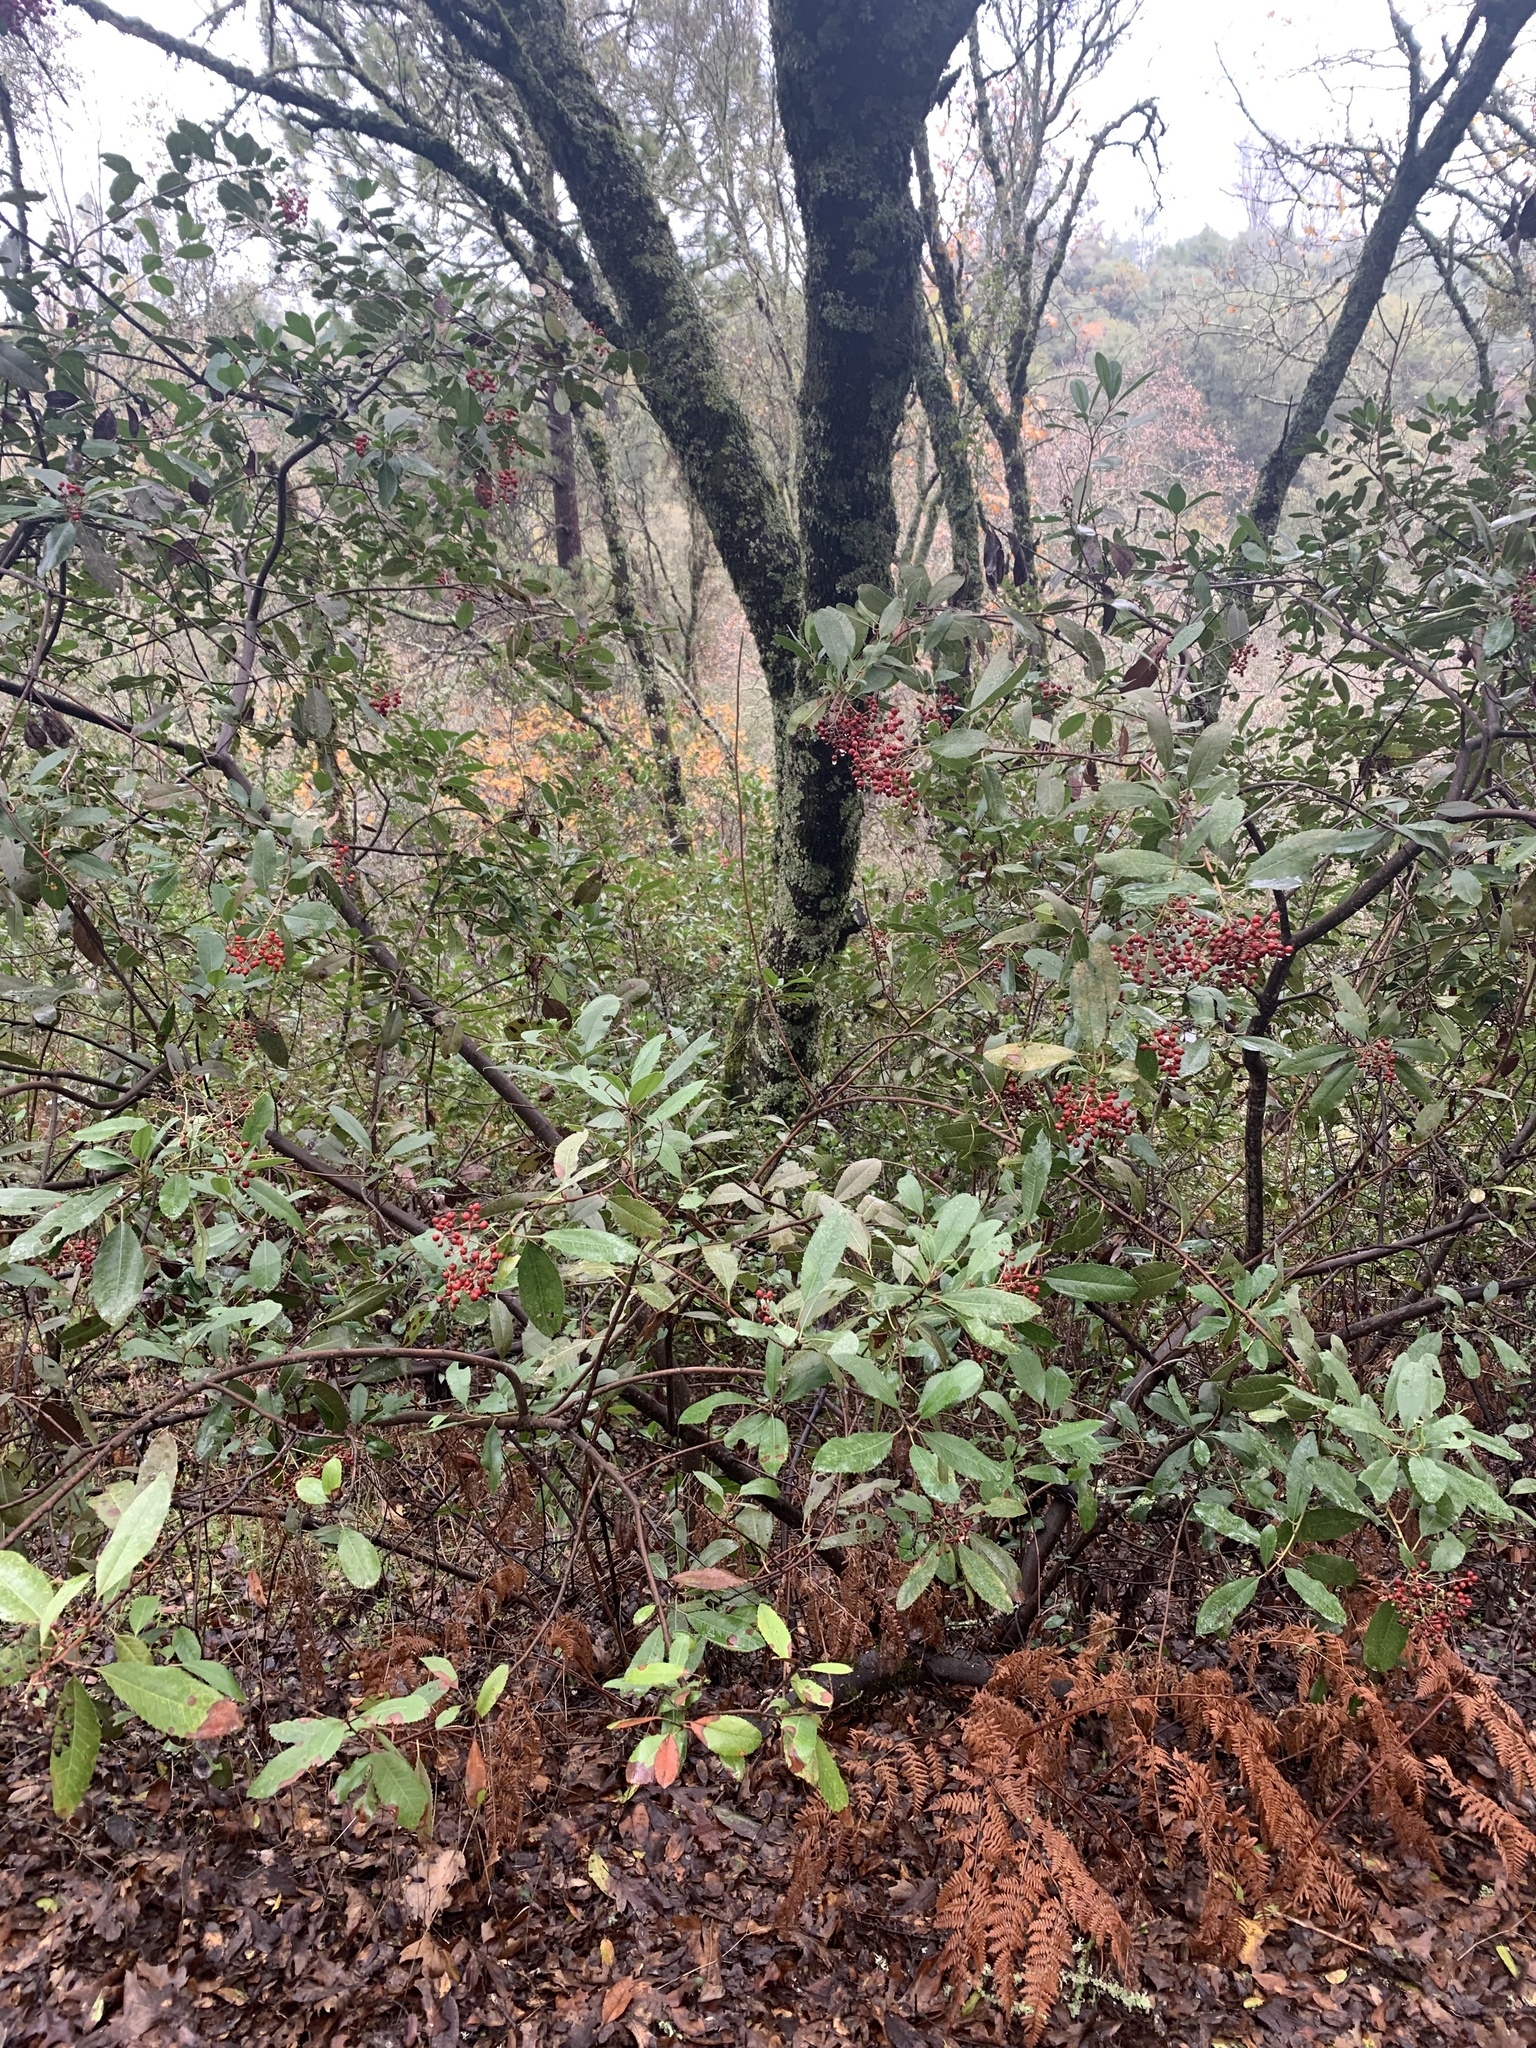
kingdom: Plantae
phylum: Tracheophyta
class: Magnoliopsida
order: Rosales
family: Rosaceae
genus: Heteromeles
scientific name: Heteromeles arbutifolia
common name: California-holly
